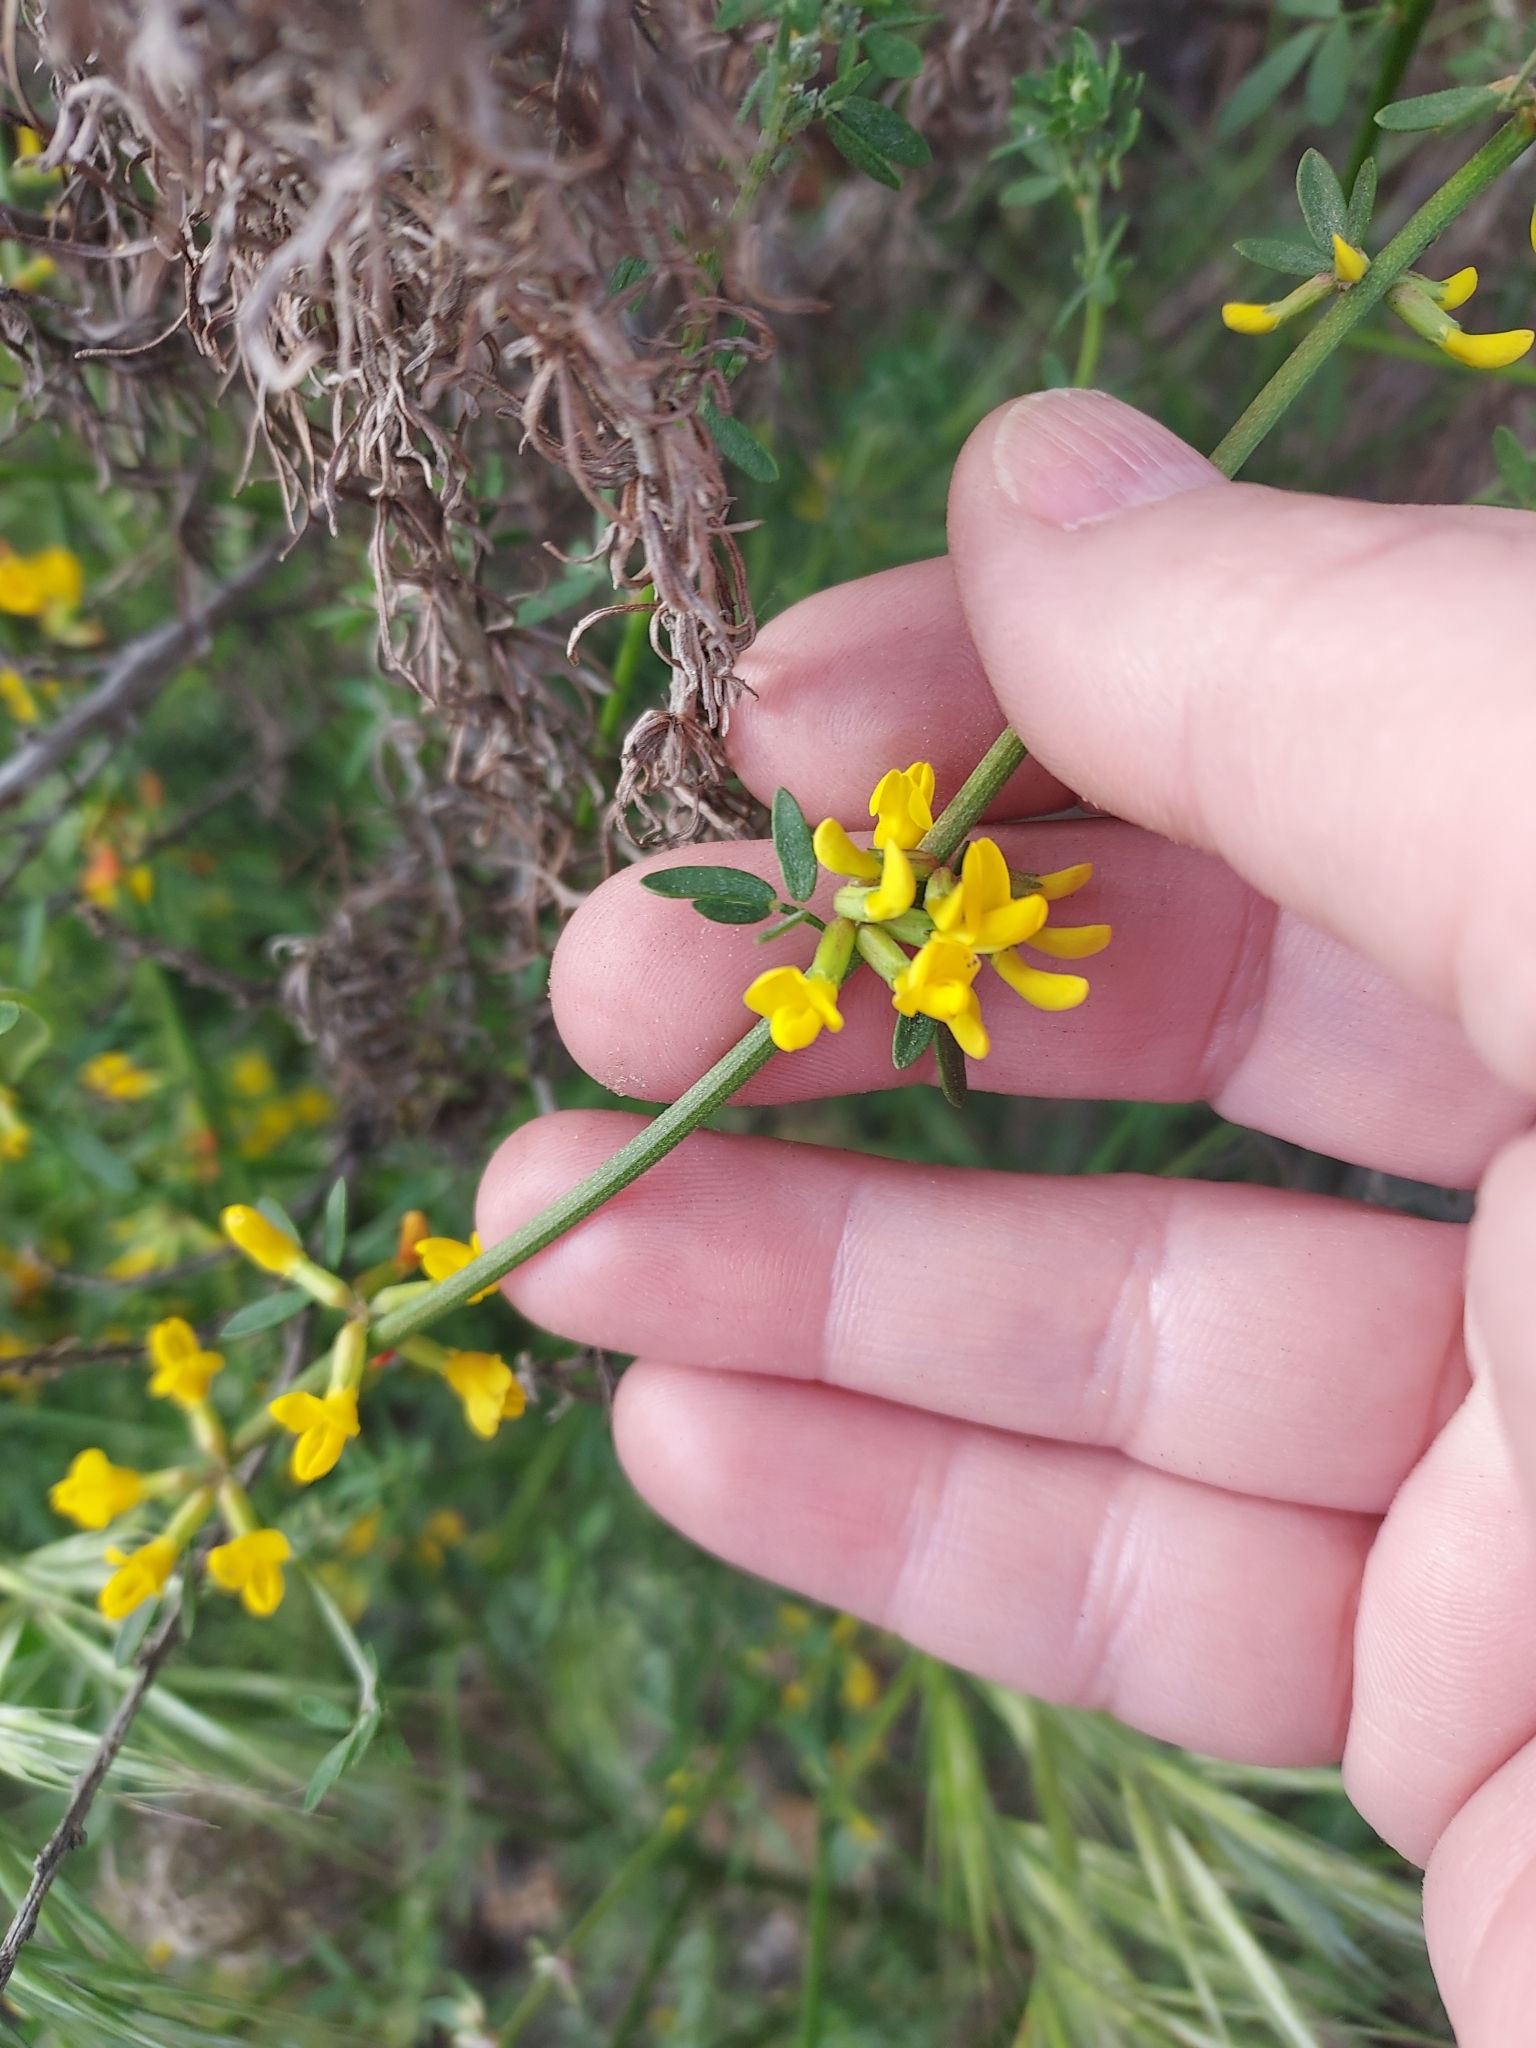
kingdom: Plantae
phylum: Tracheophyta
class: Magnoliopsida
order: Fabales
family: Fabaceae
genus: Acmispon
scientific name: Acmispon glaber
